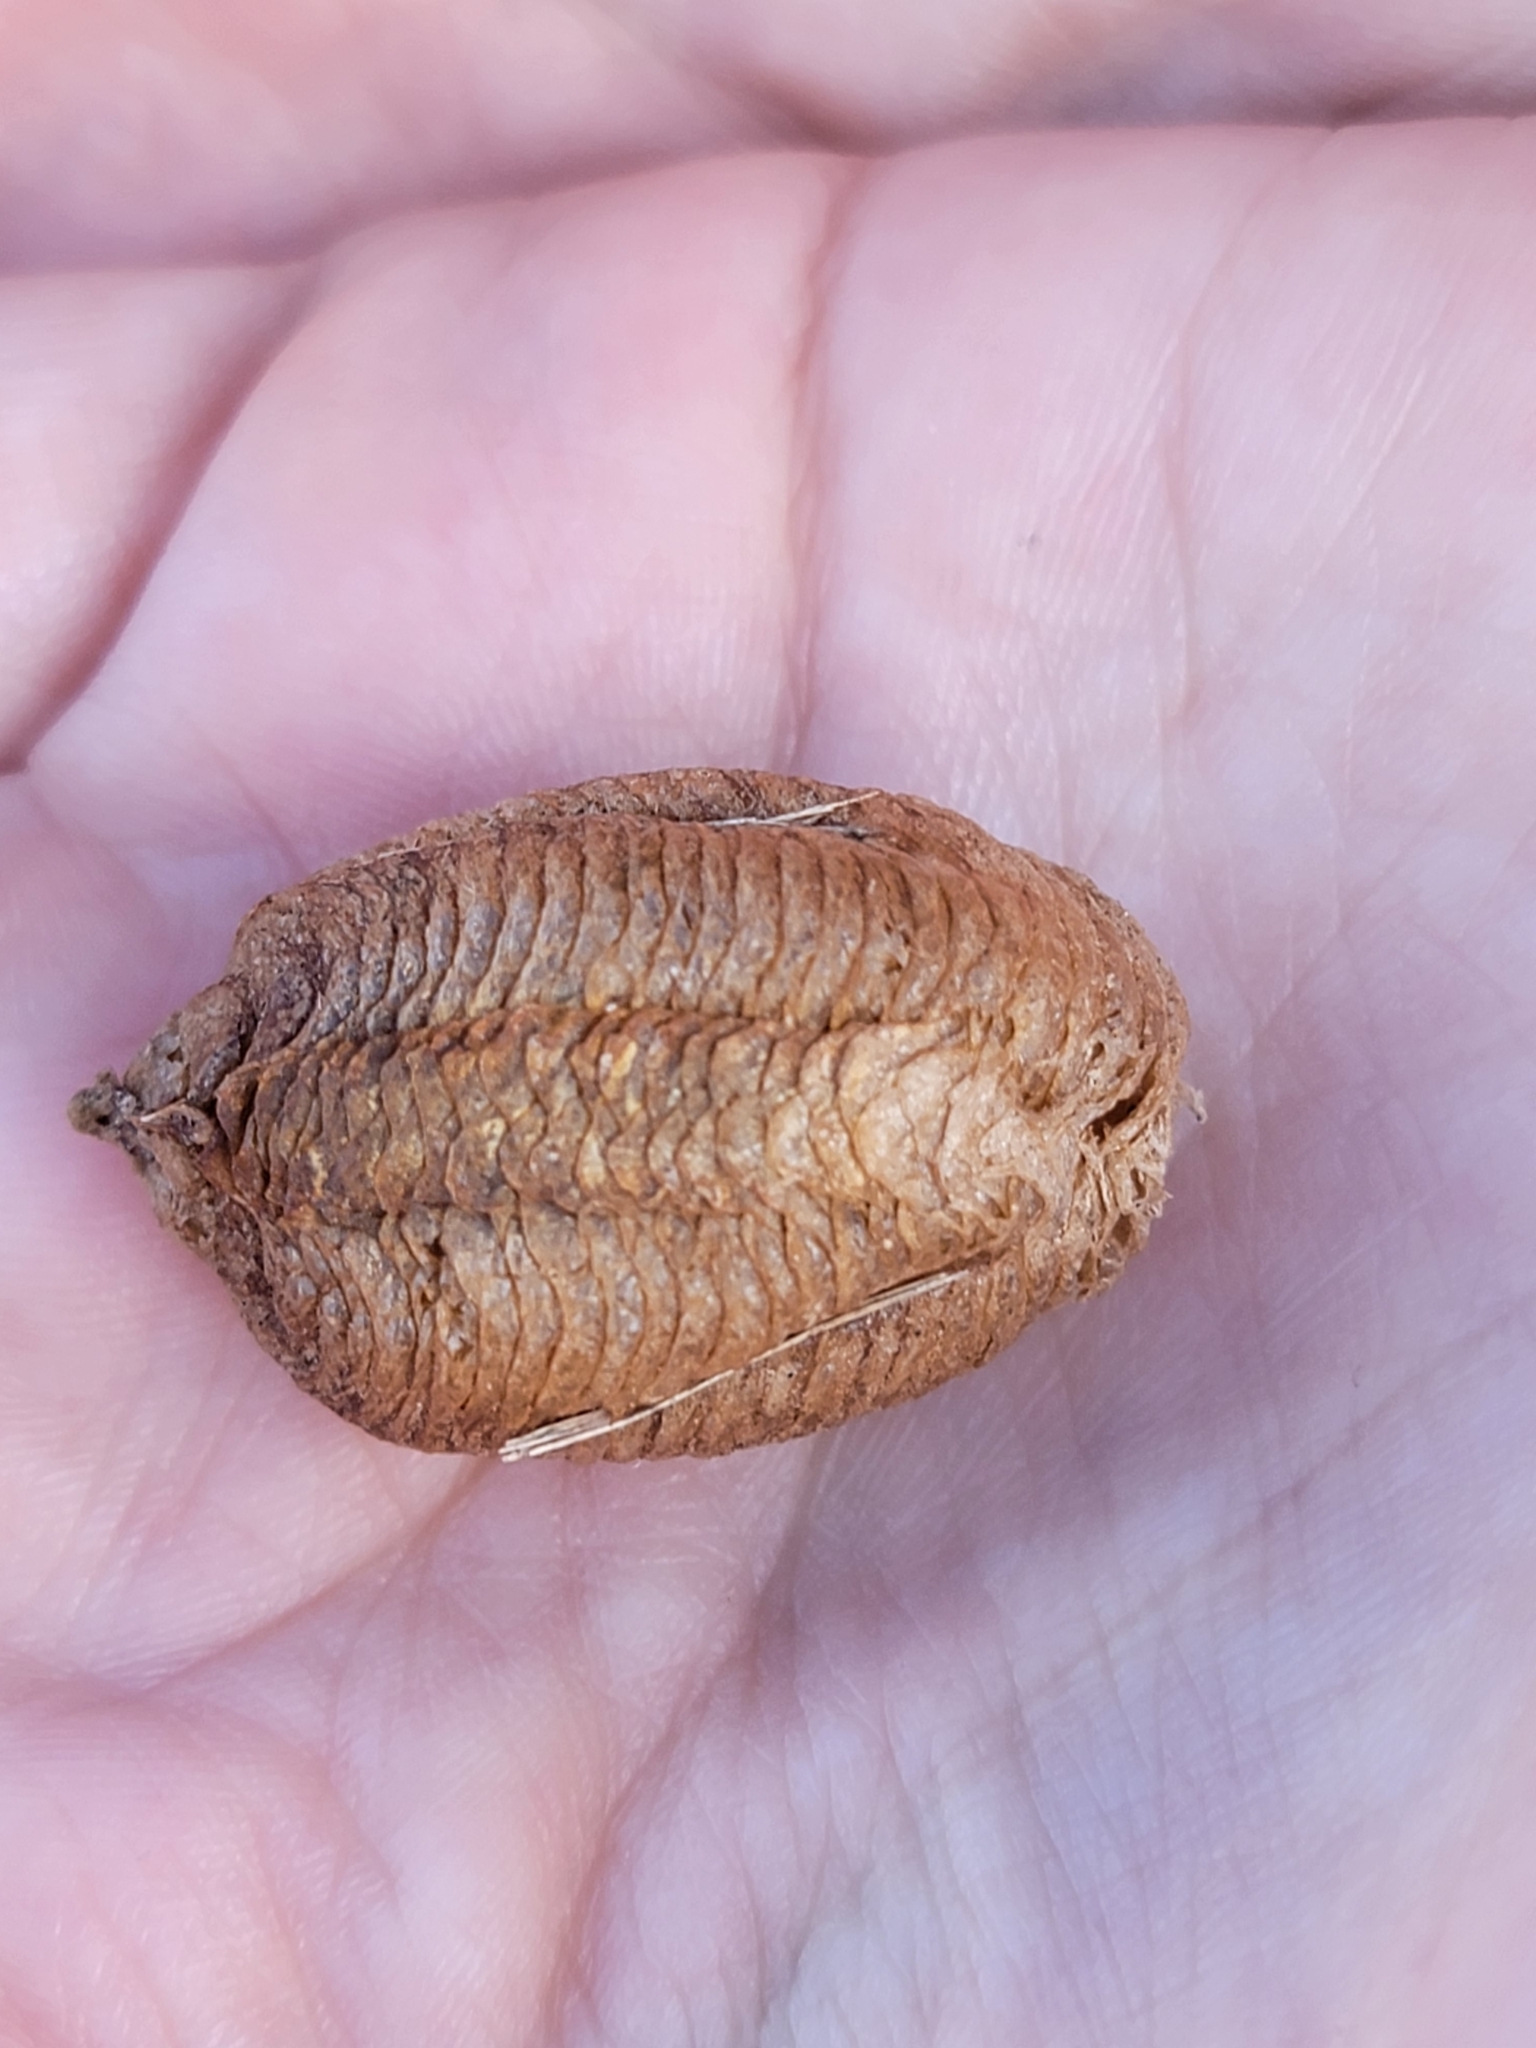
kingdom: Animalia
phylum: Arthropoda
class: Insecta
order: Mantodea
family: Mantidae
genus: Mantis
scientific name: Mantis religiosa
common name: Praying mantis
